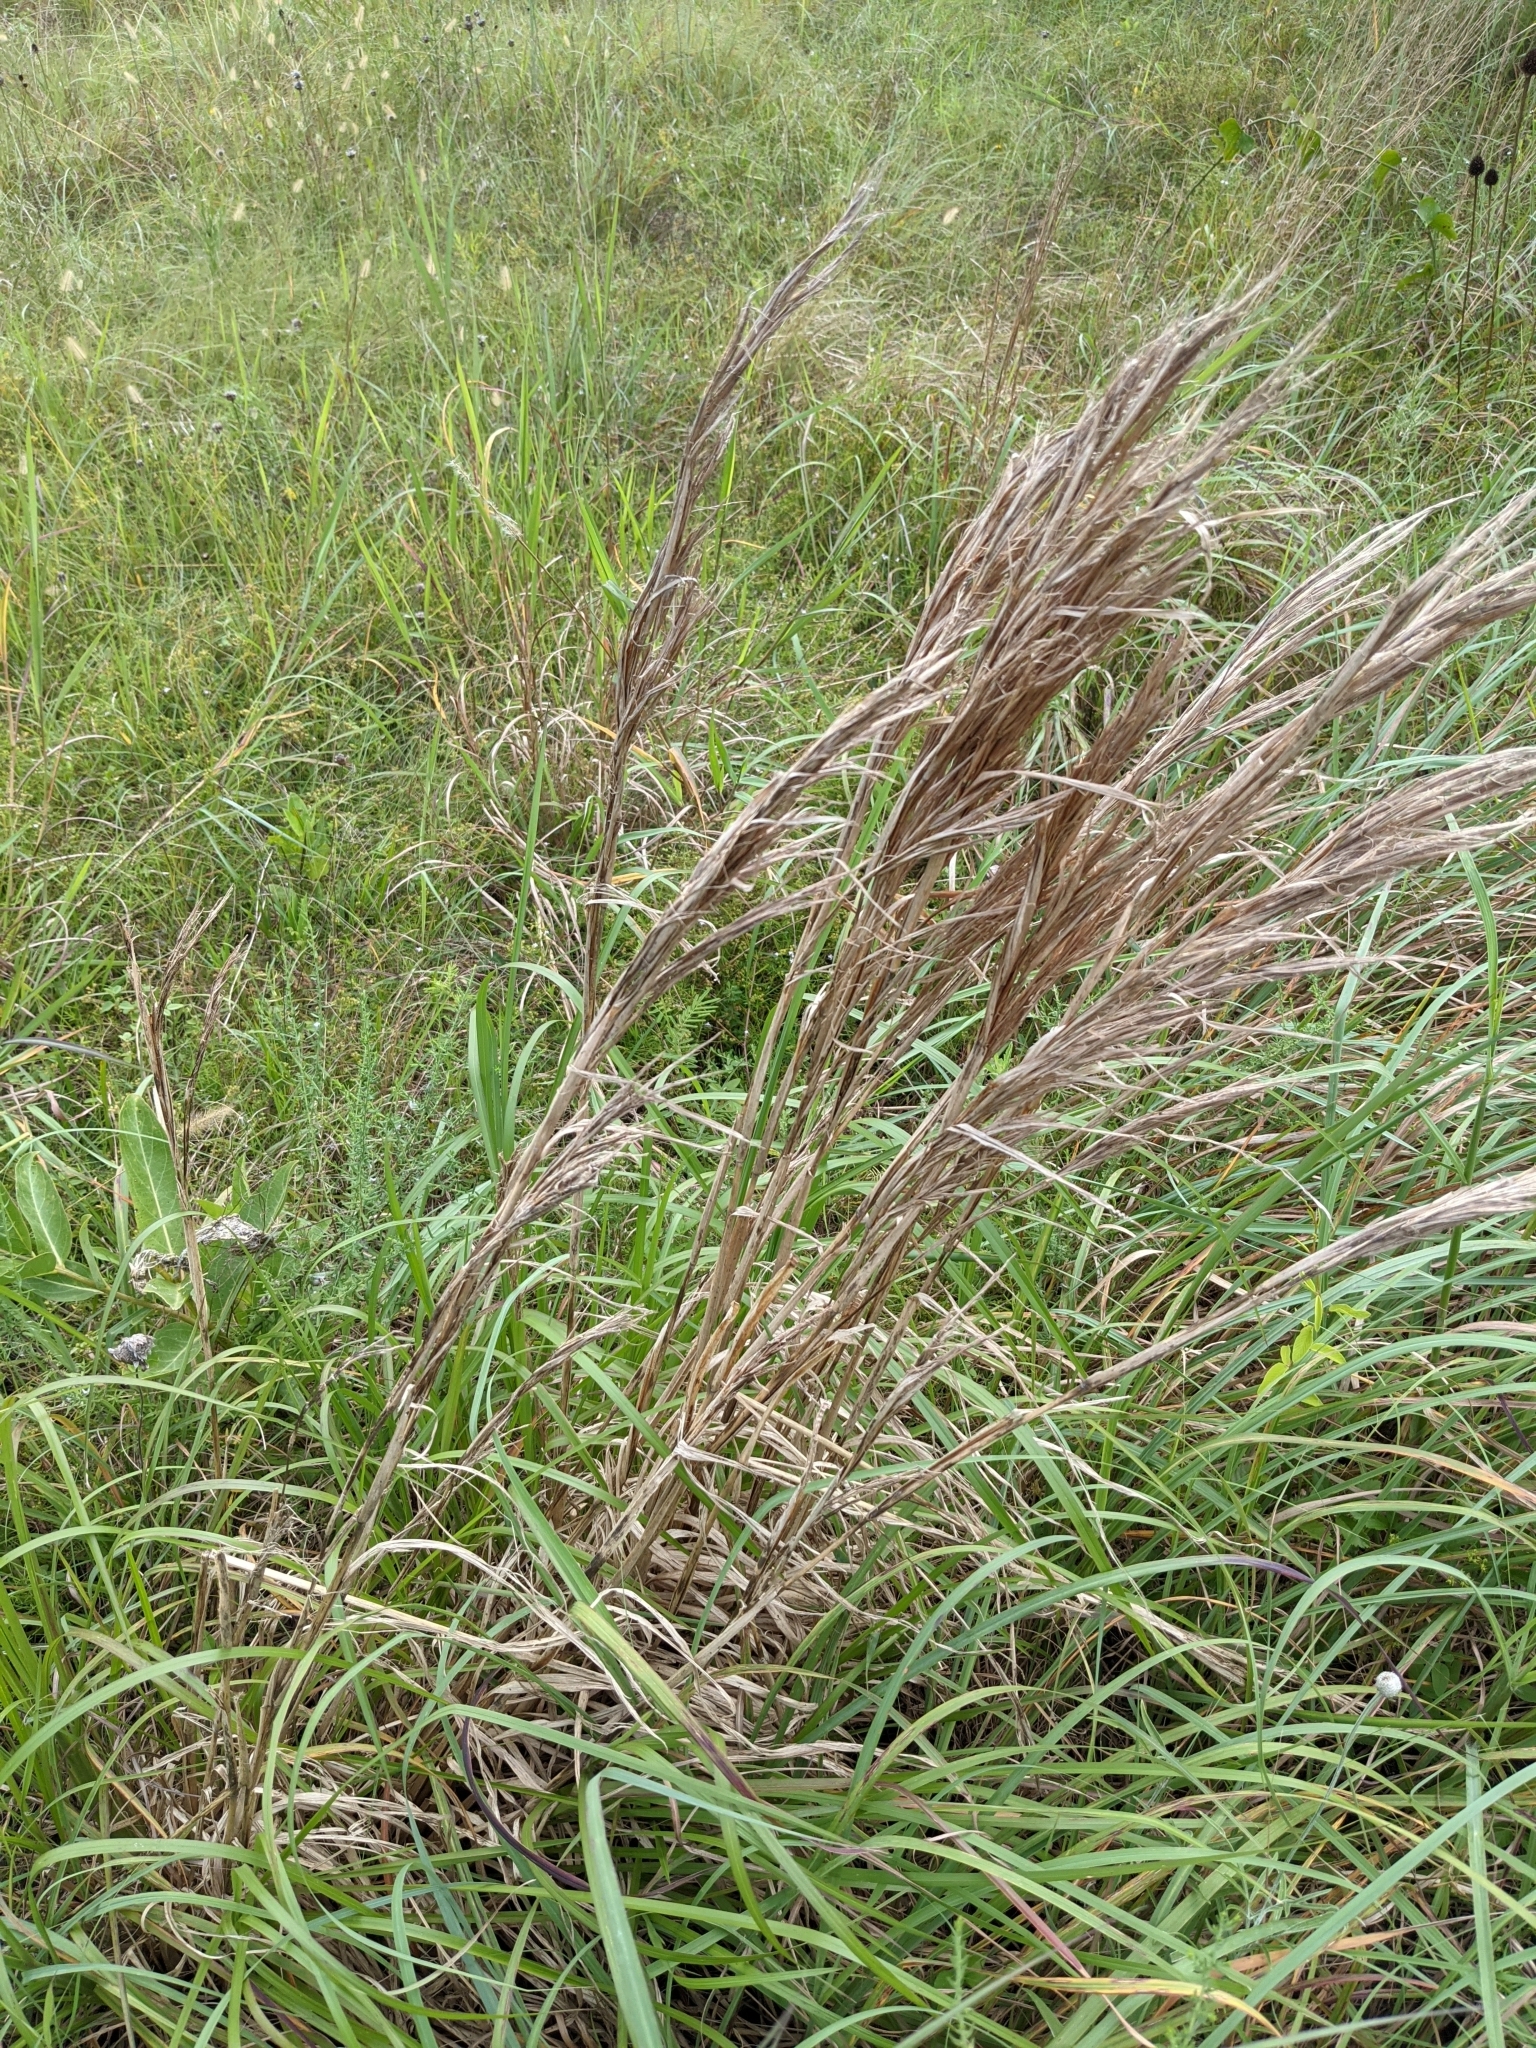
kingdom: Plantae
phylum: Tracheophyta
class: Liliopsida
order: Poales
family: Poaceae
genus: Andropogon
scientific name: Andropogon tenuispatheus
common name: Bushy bluestem
